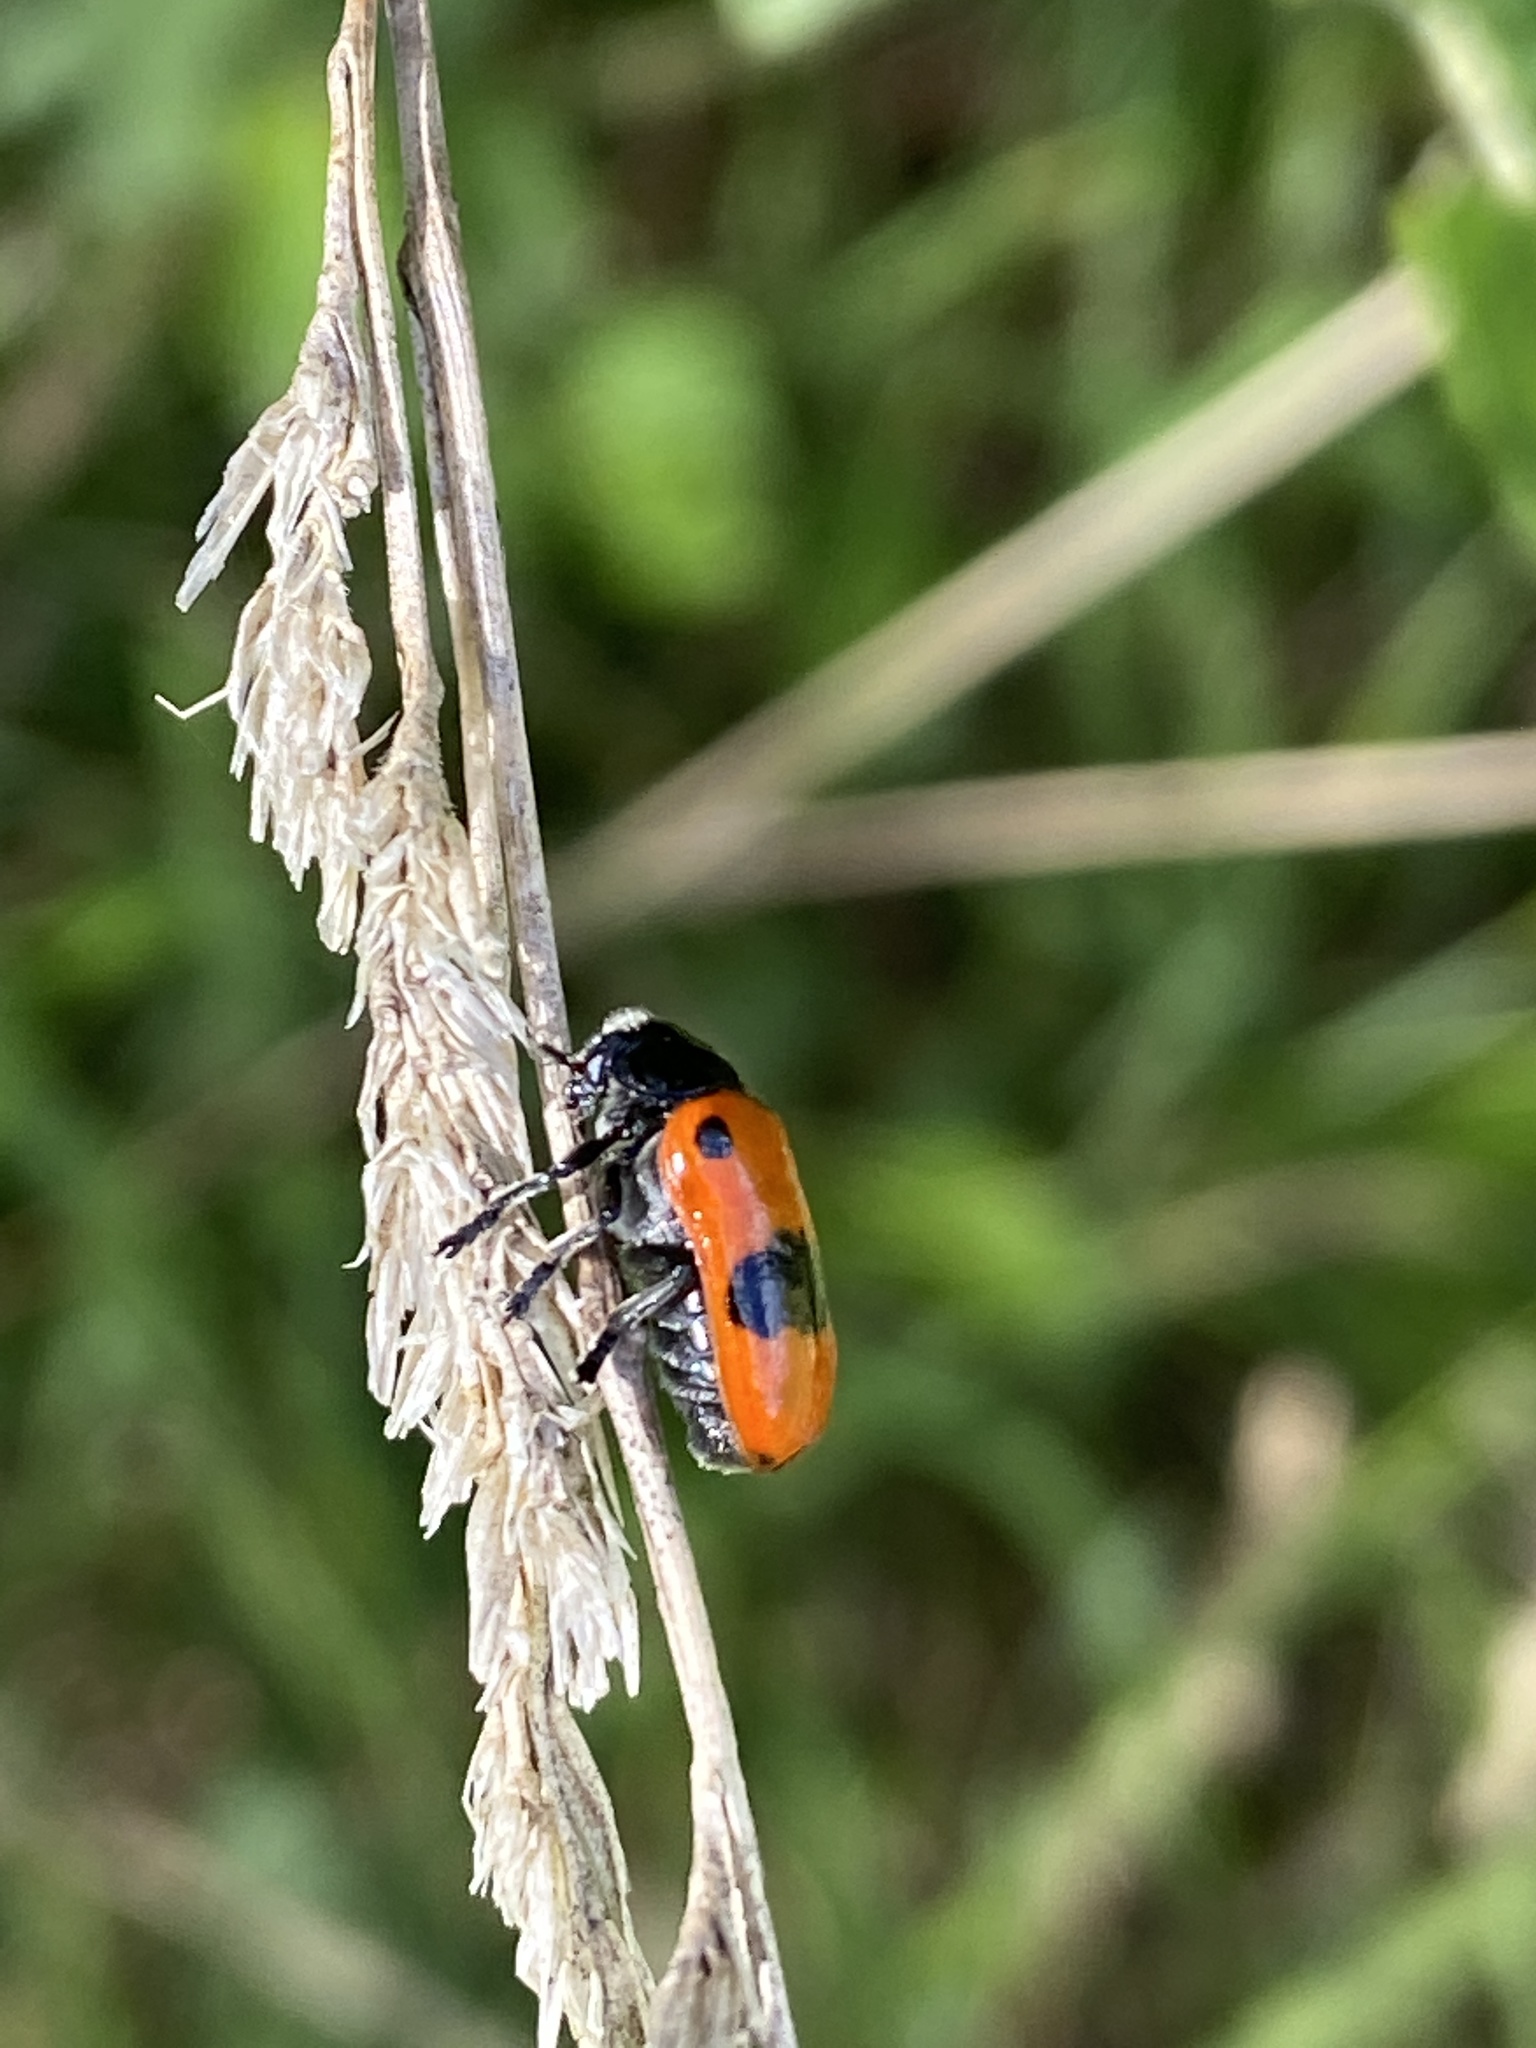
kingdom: Animalia
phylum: Arthropoda
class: Insecta
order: Coleoptera
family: Chrysomelidae
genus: Clytra
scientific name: Clytra laeviuscula
